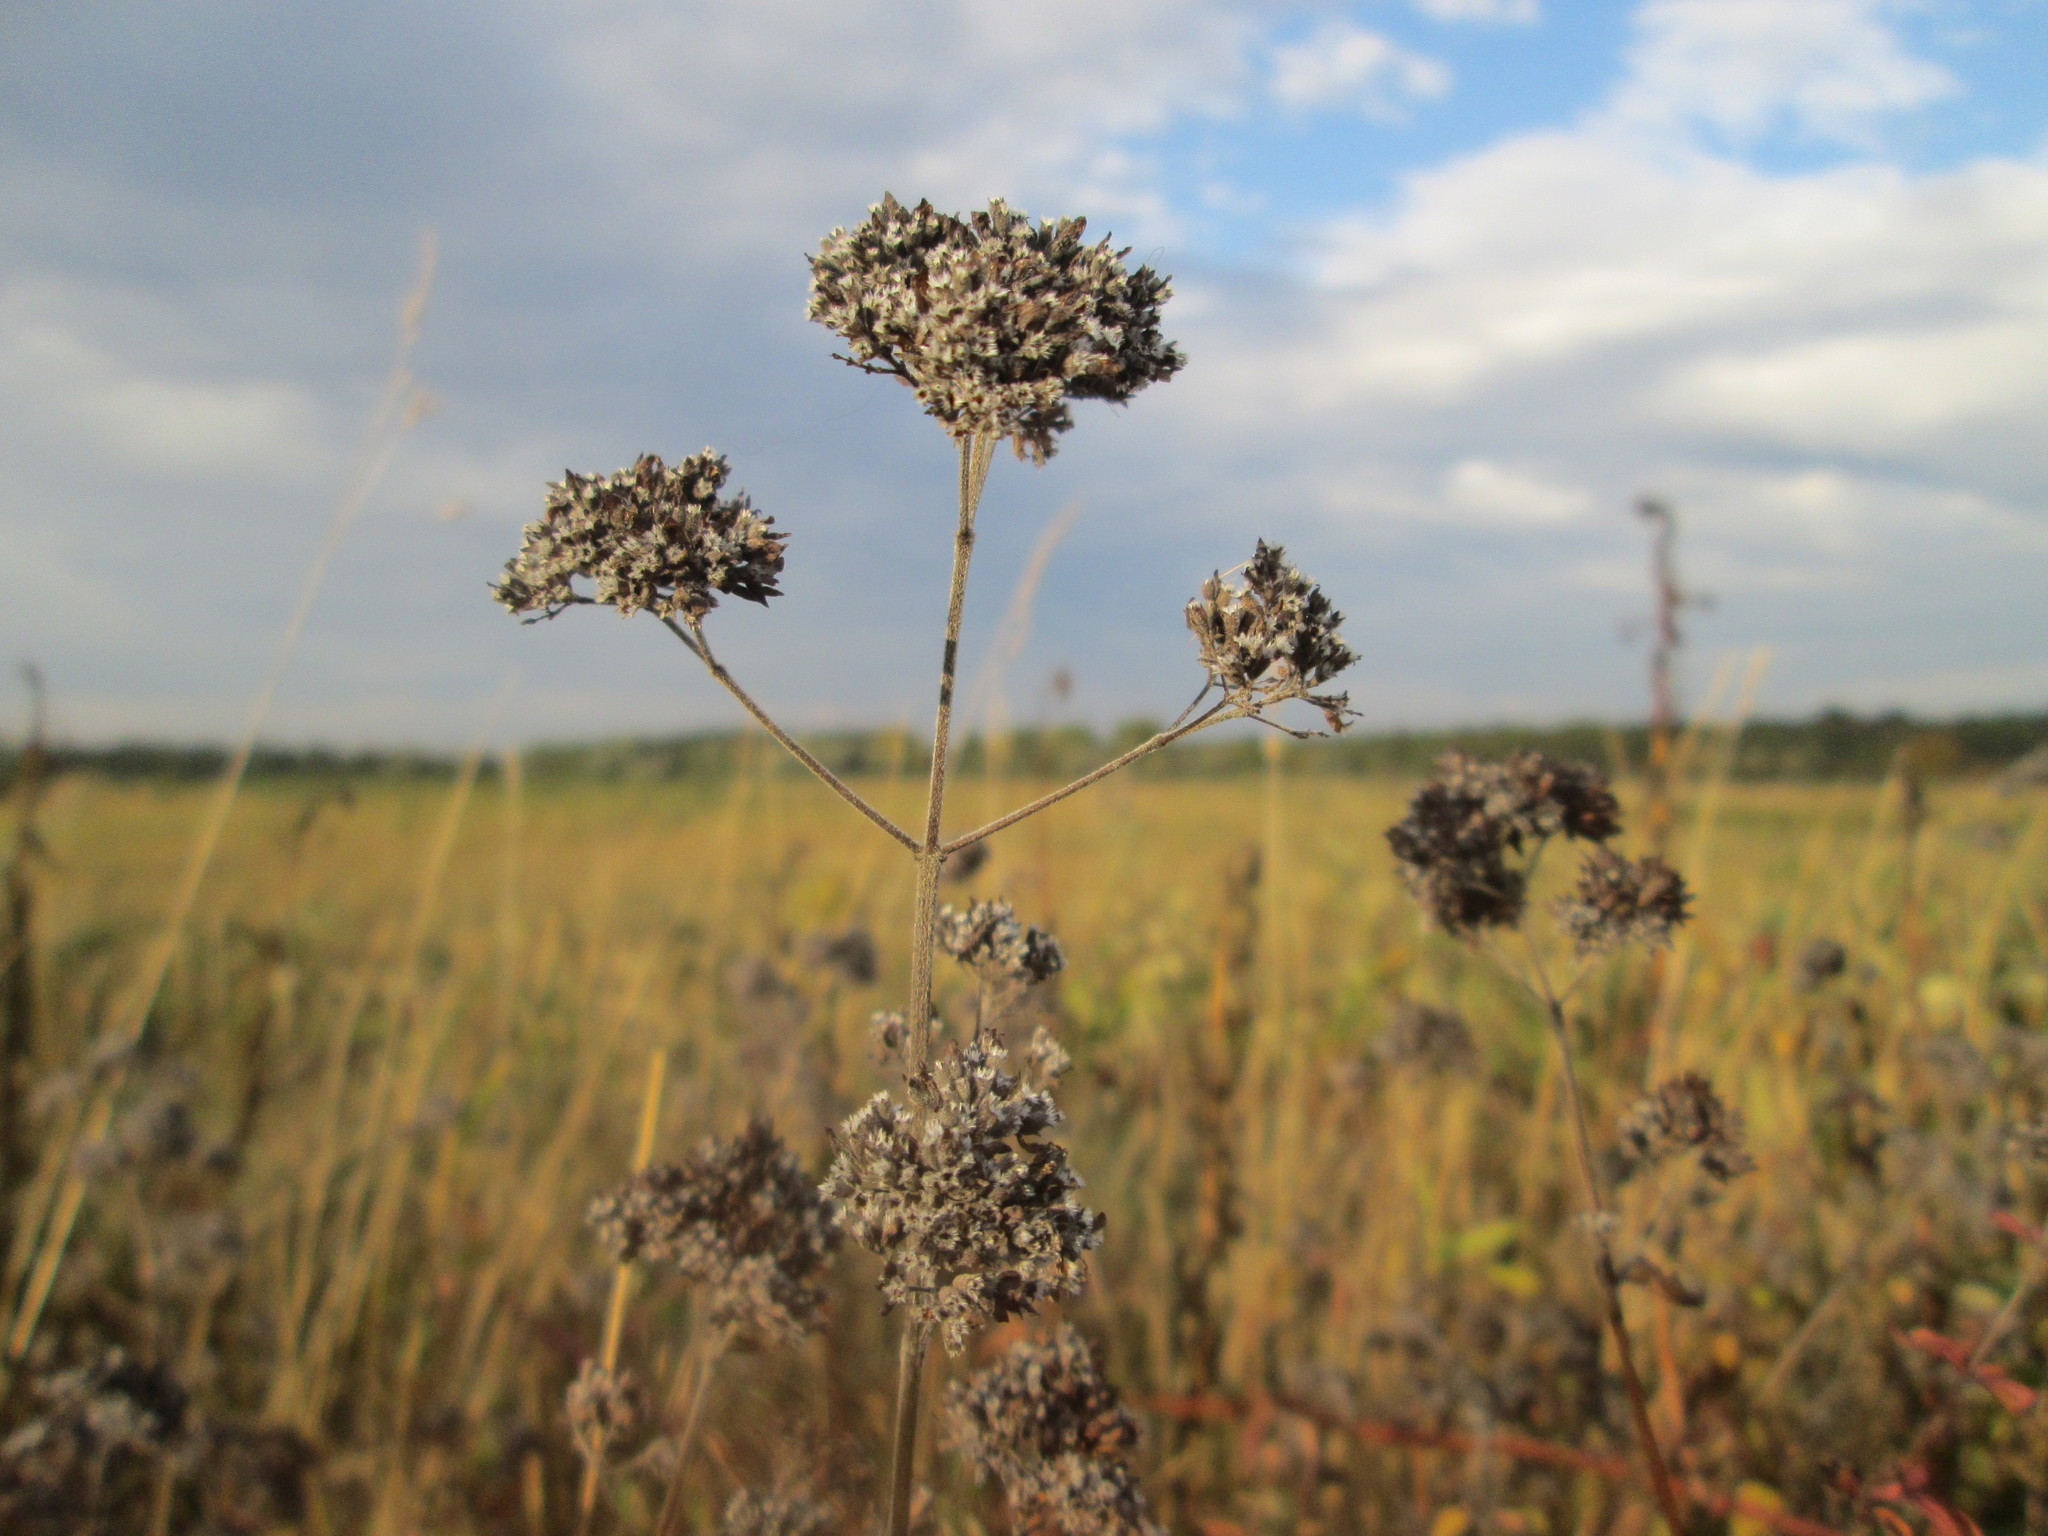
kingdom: Plantae
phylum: Tracheophyta
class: Magnoliopsida
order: Lamiales
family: Lamiaceae
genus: Origanum
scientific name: Origanum vulgare
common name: Wild marjoram
